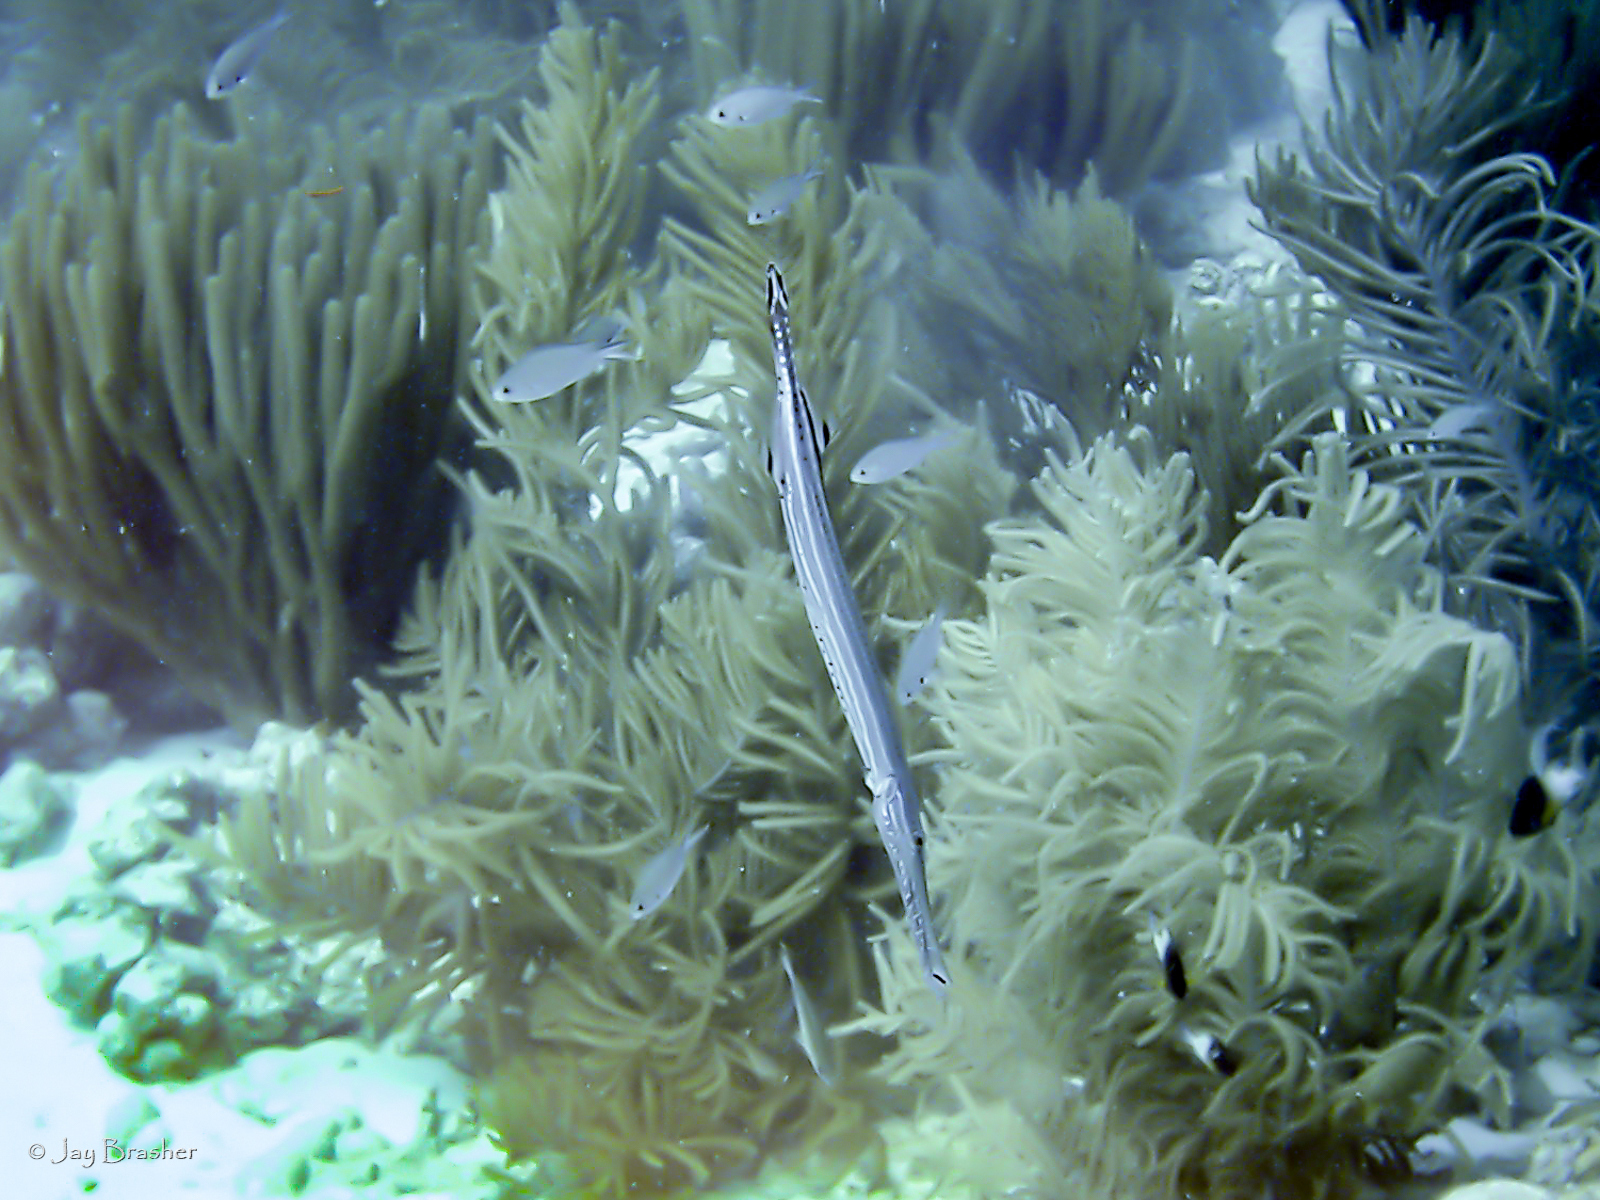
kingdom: Animalia
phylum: Chordata
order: Syngnathiformes
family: Aulostomidae
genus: Aulostomus
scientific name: Aulostomus maculatus
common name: West atlantic trumpetfish
